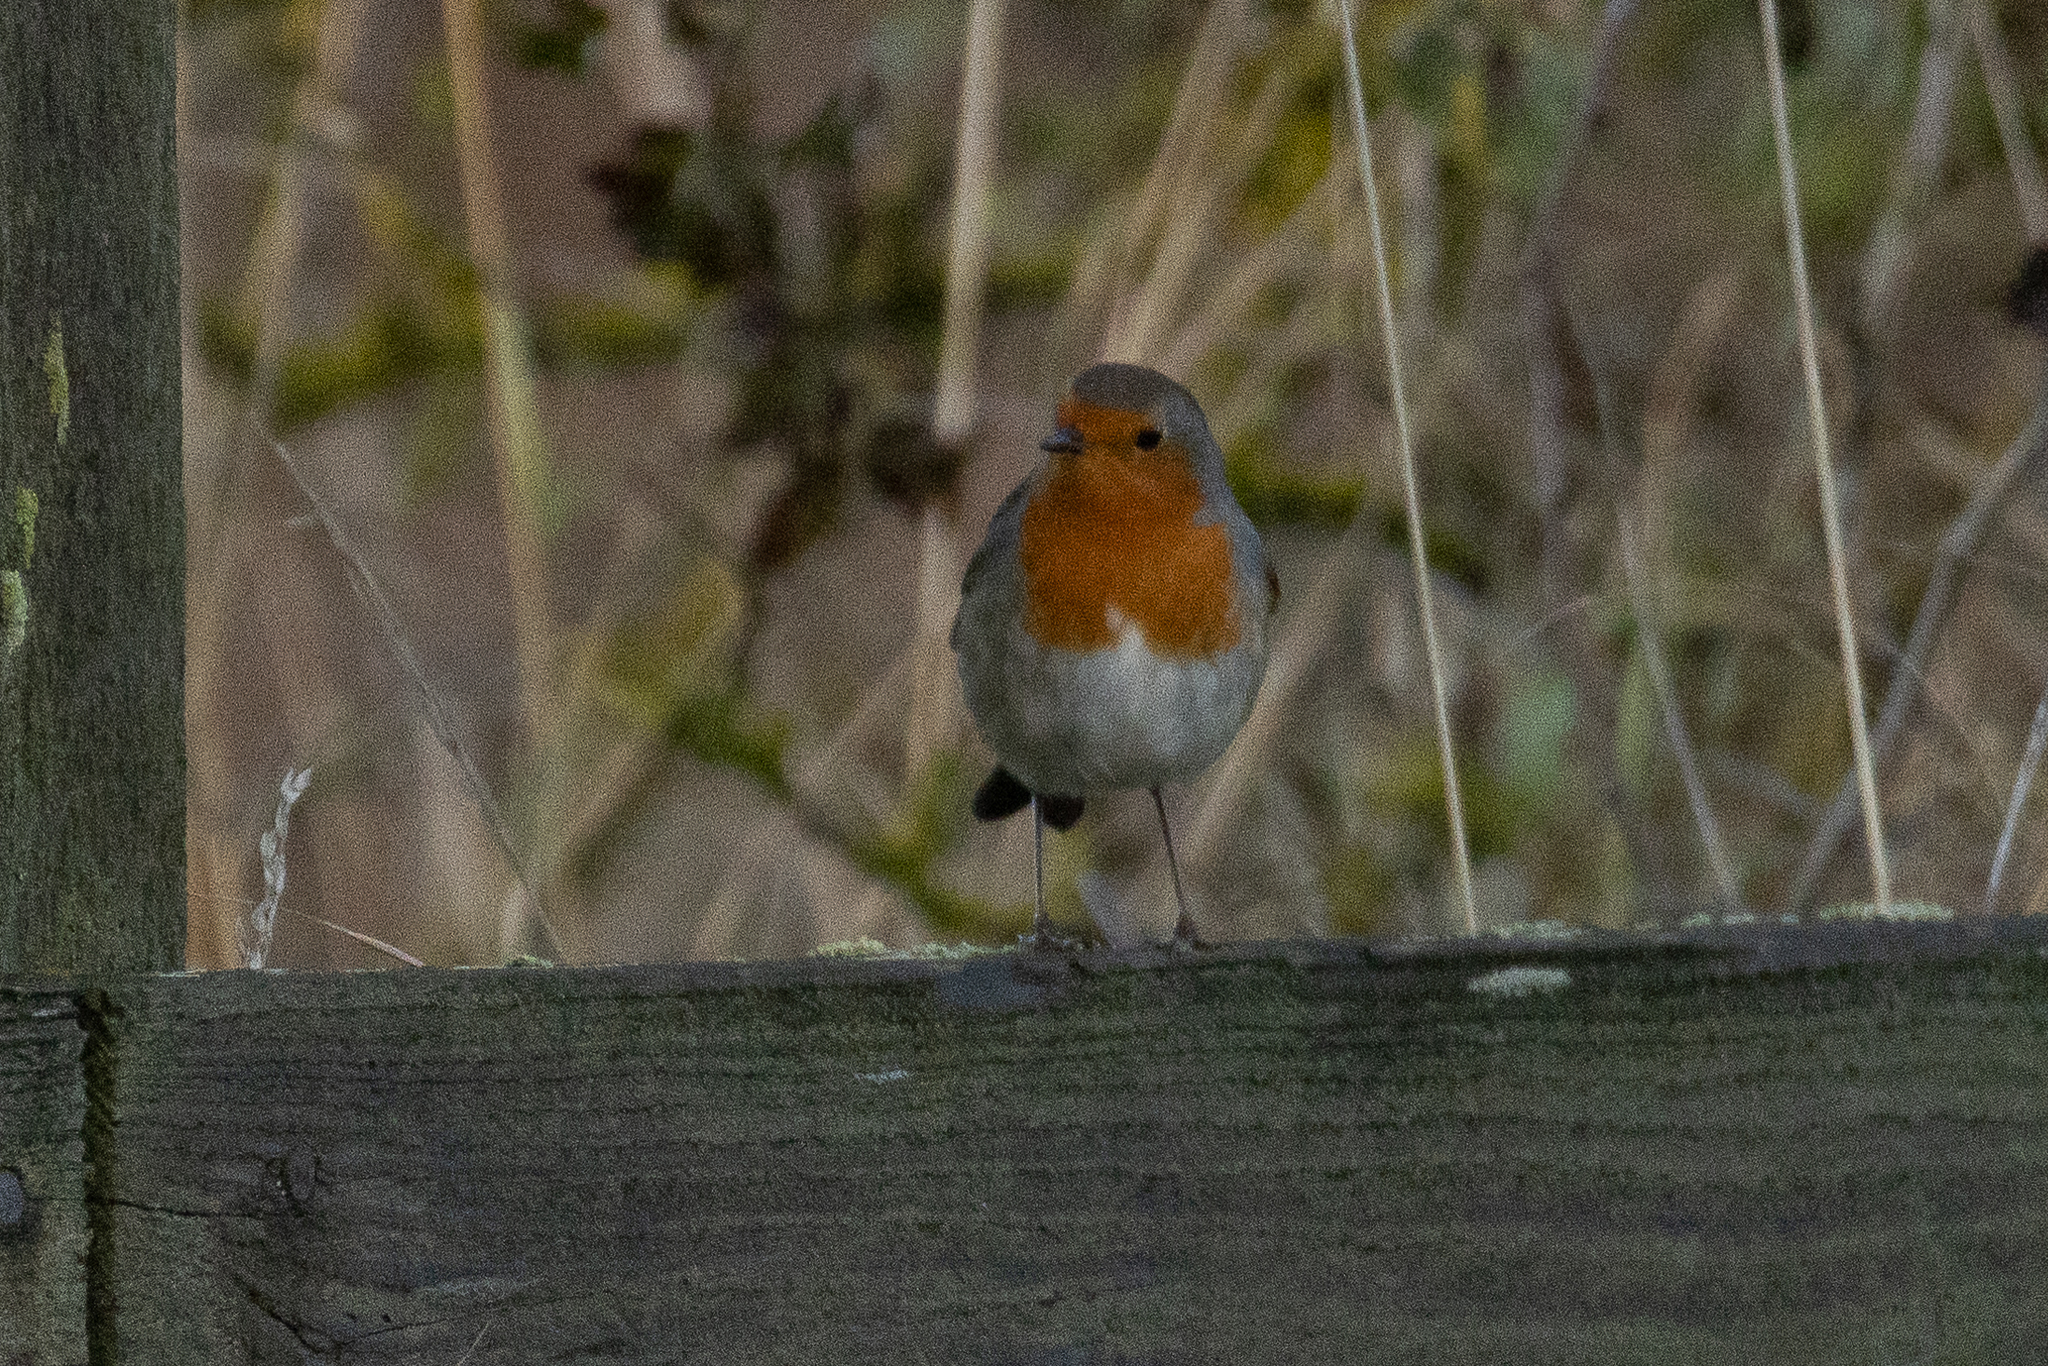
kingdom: Animalia
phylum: Chordata
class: Aves
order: Passeriformes
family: Muscicapidae
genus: Erithacus
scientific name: Erithacus rubecula
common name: European robin
